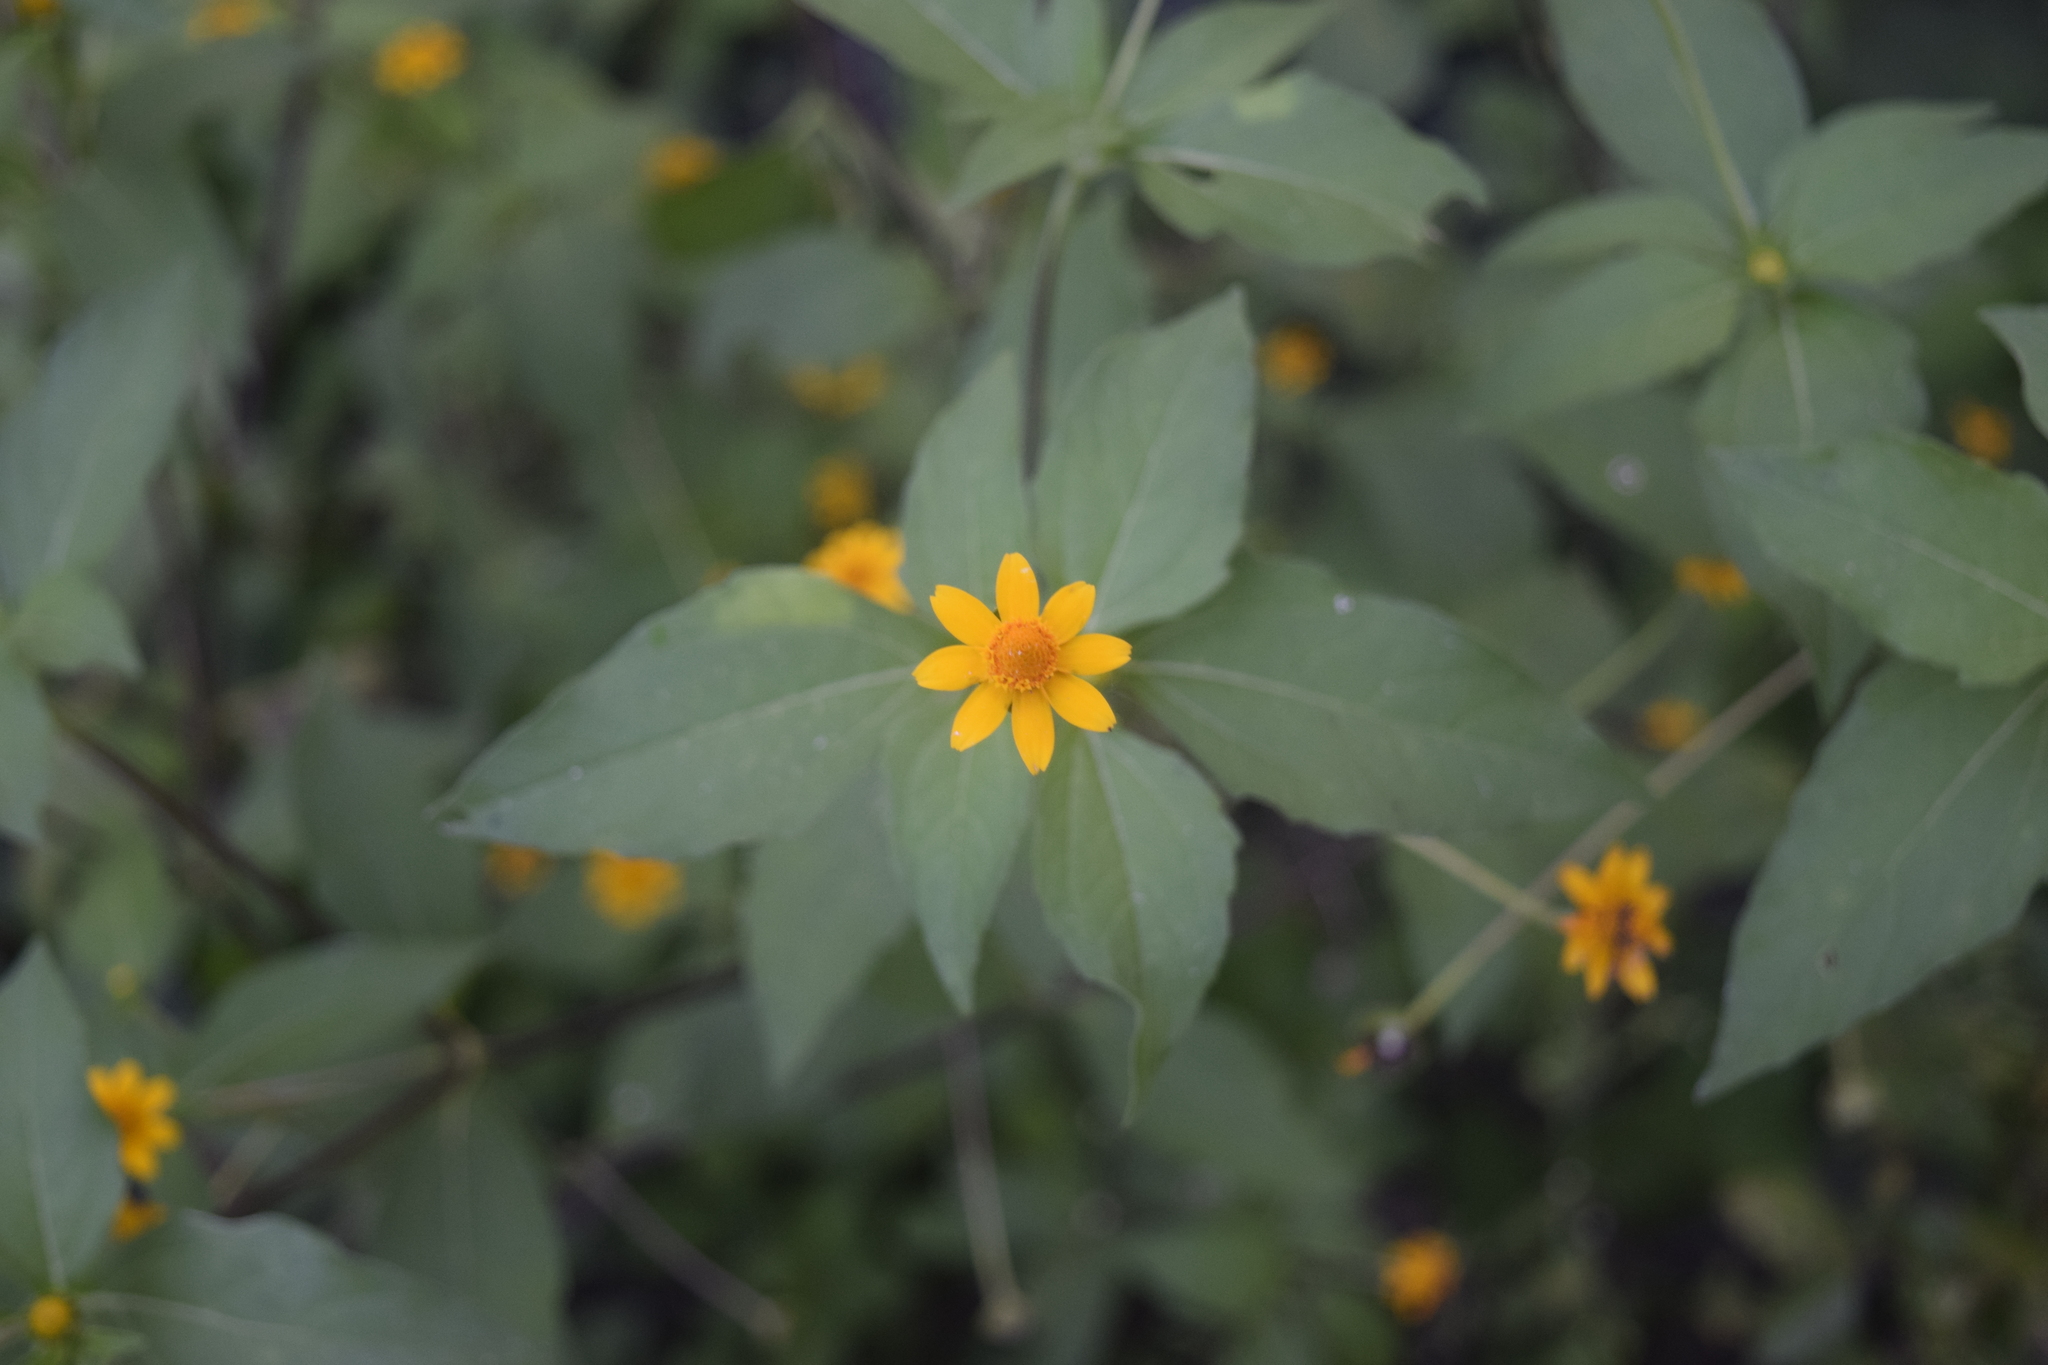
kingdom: Plantae
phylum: Tracheophyta
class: Magnoliopsida
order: Asterales
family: Asteraceae
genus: Melampodium
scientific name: Melampodium divaricatum
